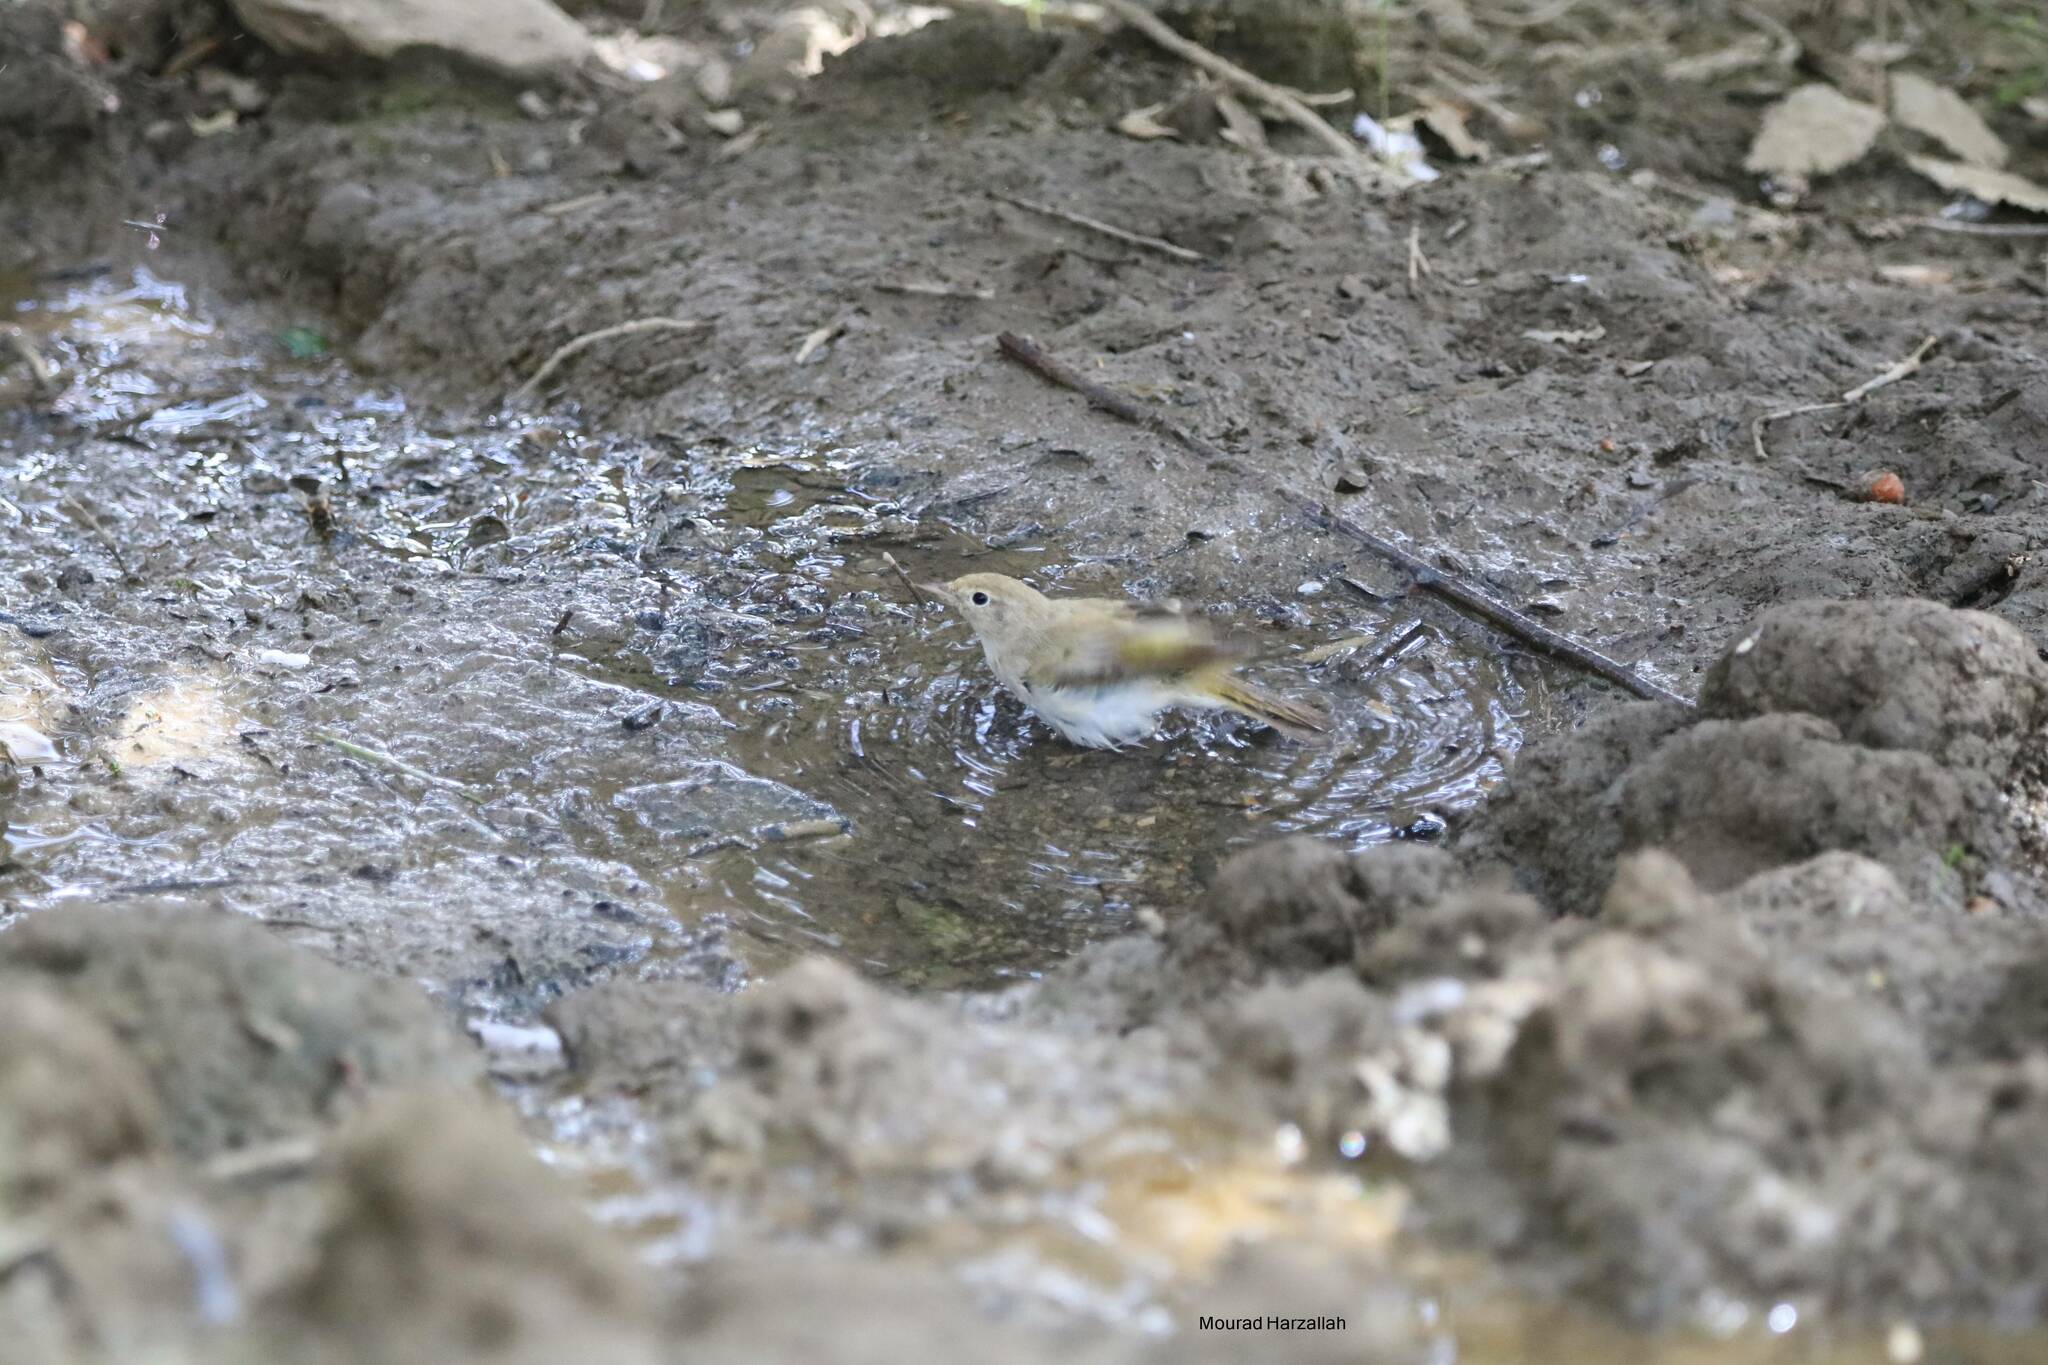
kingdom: Animalia
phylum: Chordata
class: Aves
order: Passeriformes
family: Phylloscopidae
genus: Phylloscopus
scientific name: Phylloscopus bonelli
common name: Western bonelli's warbler
